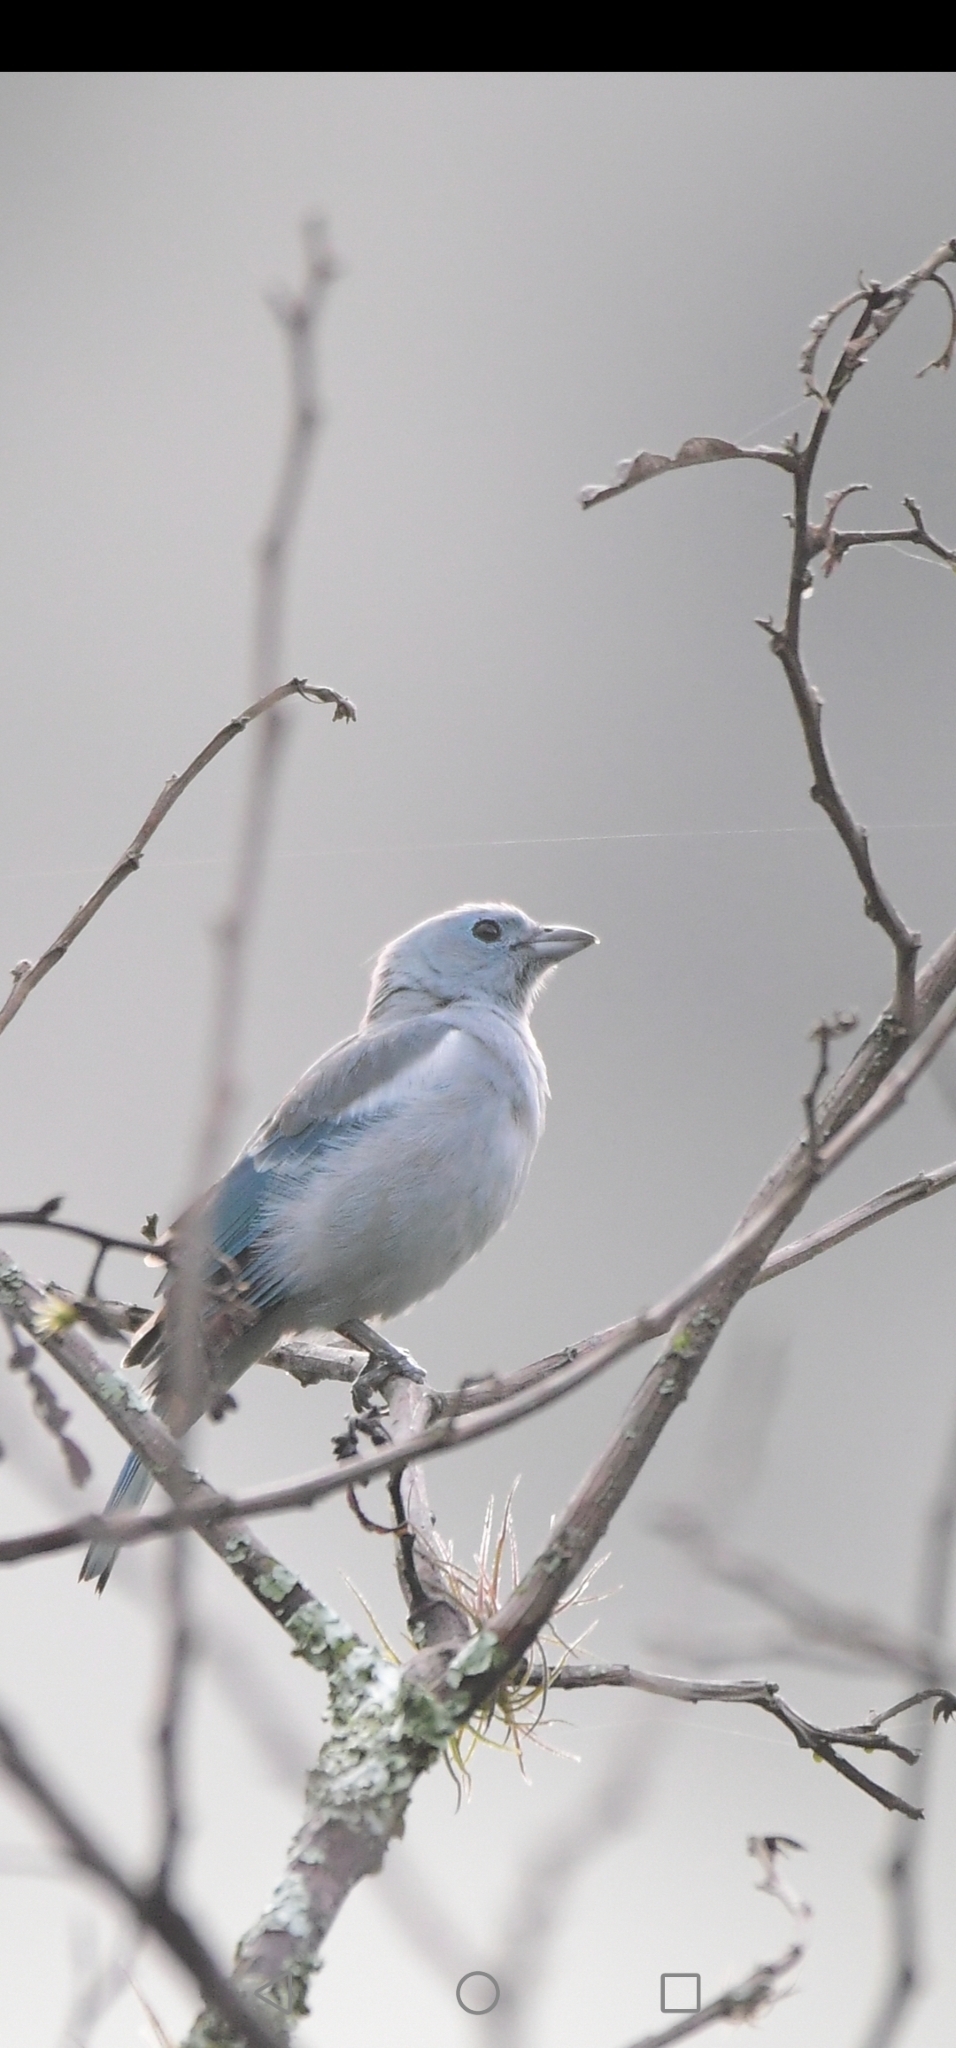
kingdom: Animalia
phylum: Chordata
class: Aves
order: Passeriformes
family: Thraupidae
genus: Thraupis
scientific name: Thraupis episcopus
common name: Blue-grey tanager
